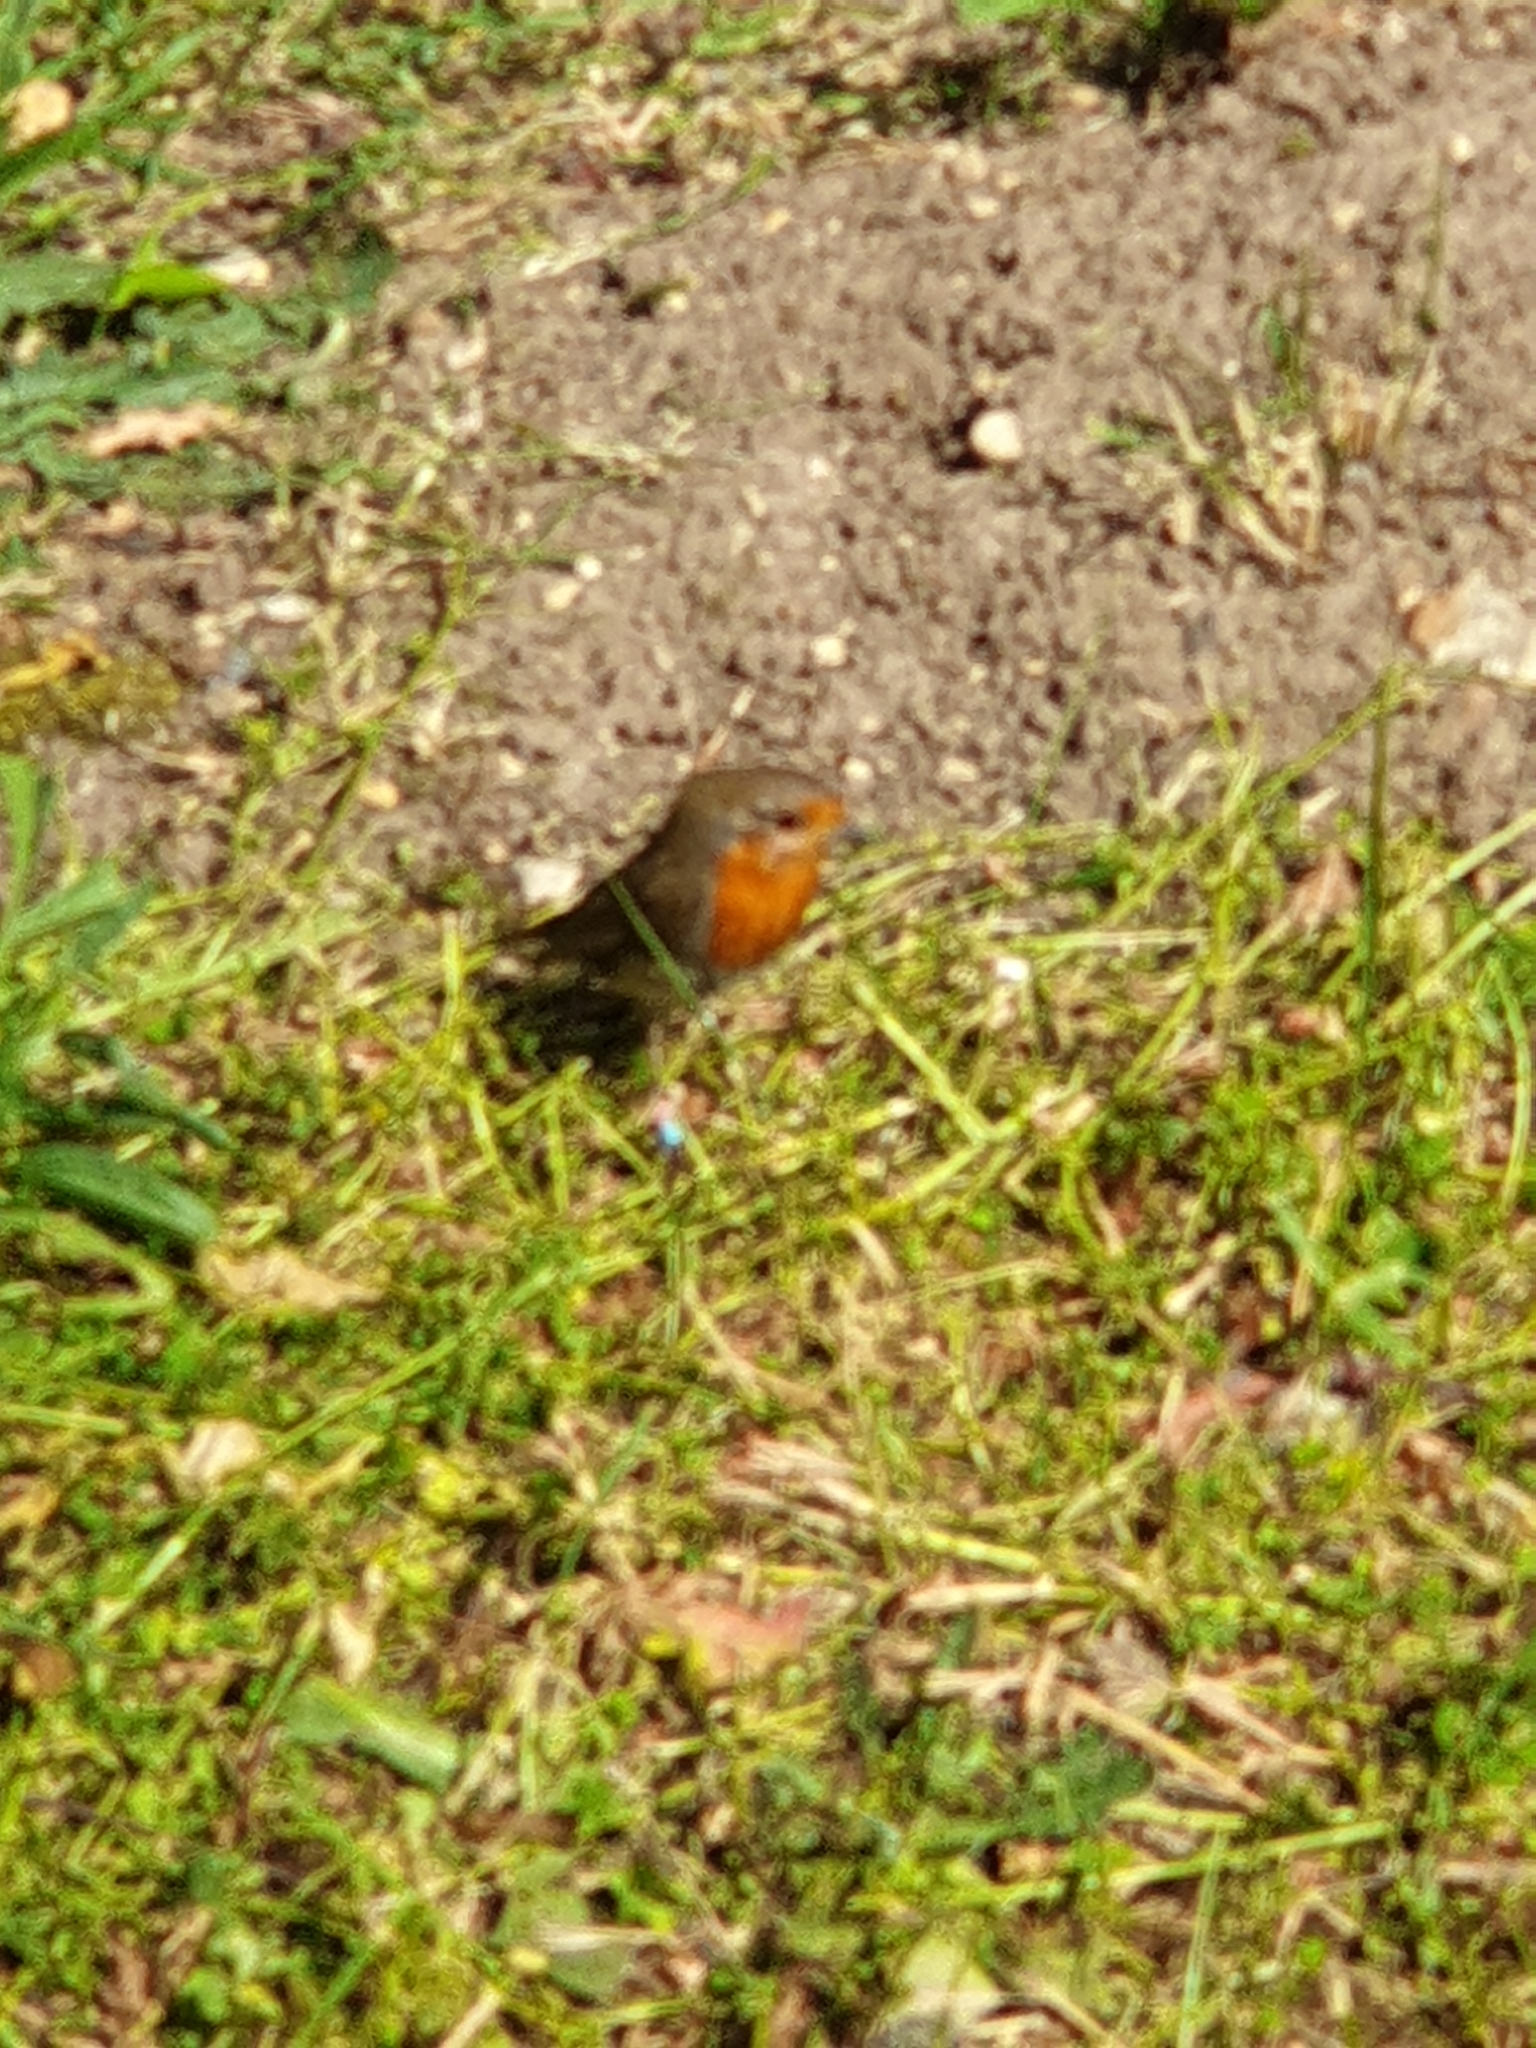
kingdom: Animalia
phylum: Chordata
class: Aves
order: Passeriformes
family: Muscicapidae
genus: Erithacus
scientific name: Erithacus rubecula
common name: European robin
